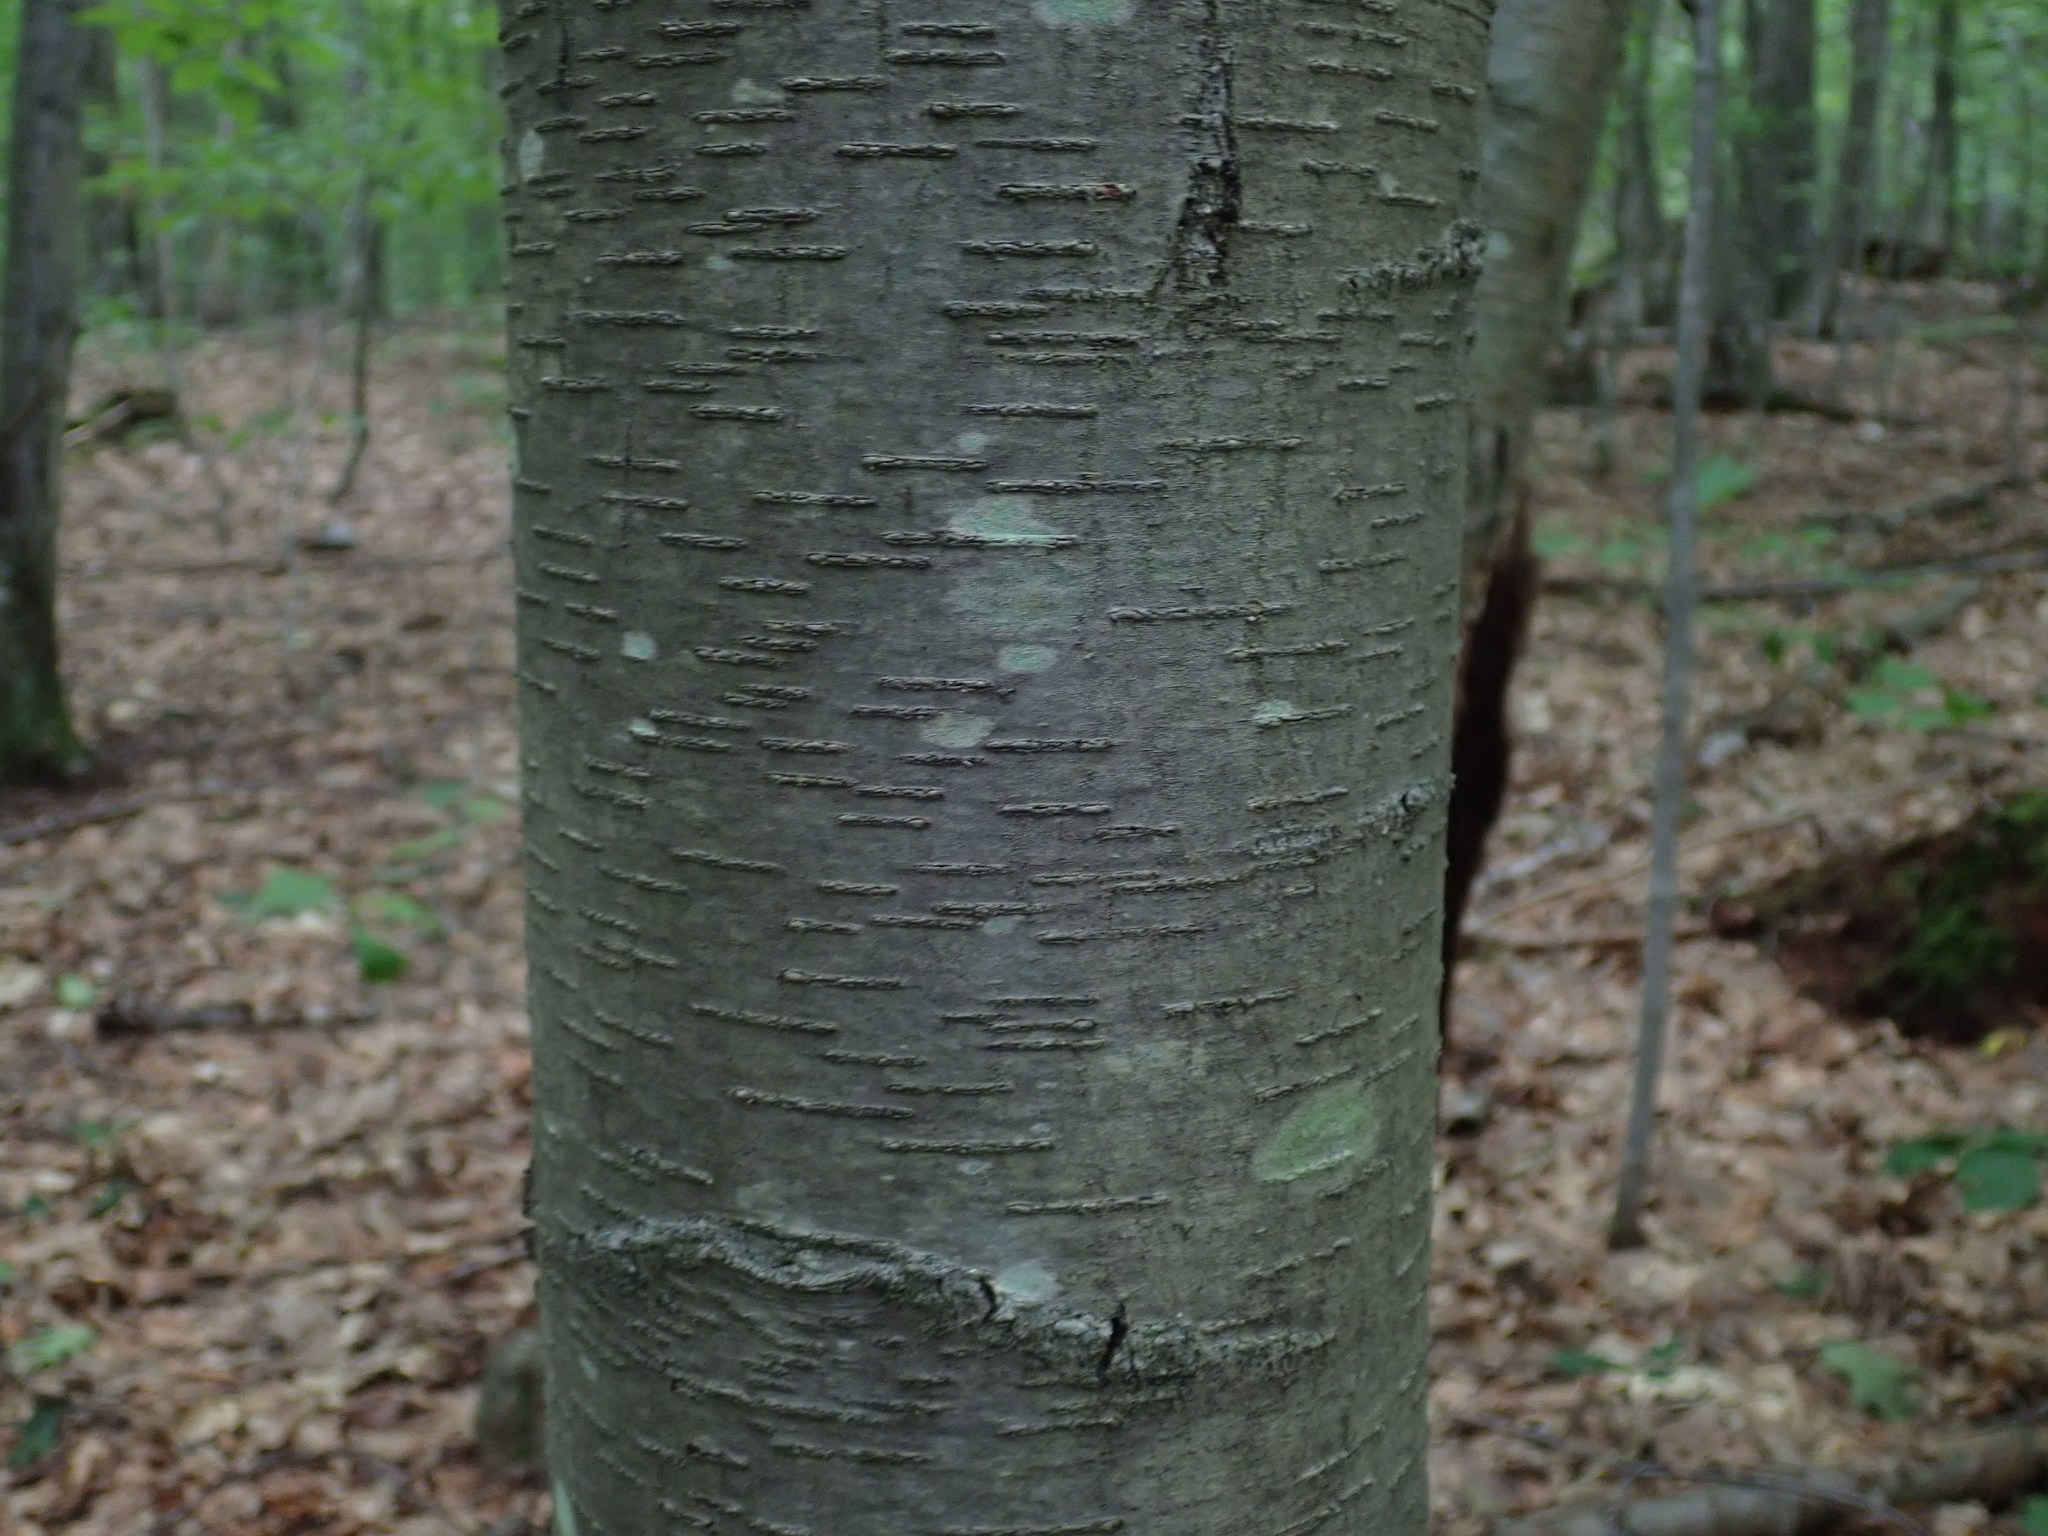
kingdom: Plantae
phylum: Tracheophyta
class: Magnoliopsida
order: Fagales
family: Betulaceae
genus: Betula
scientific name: Betula lenta
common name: Black birch
